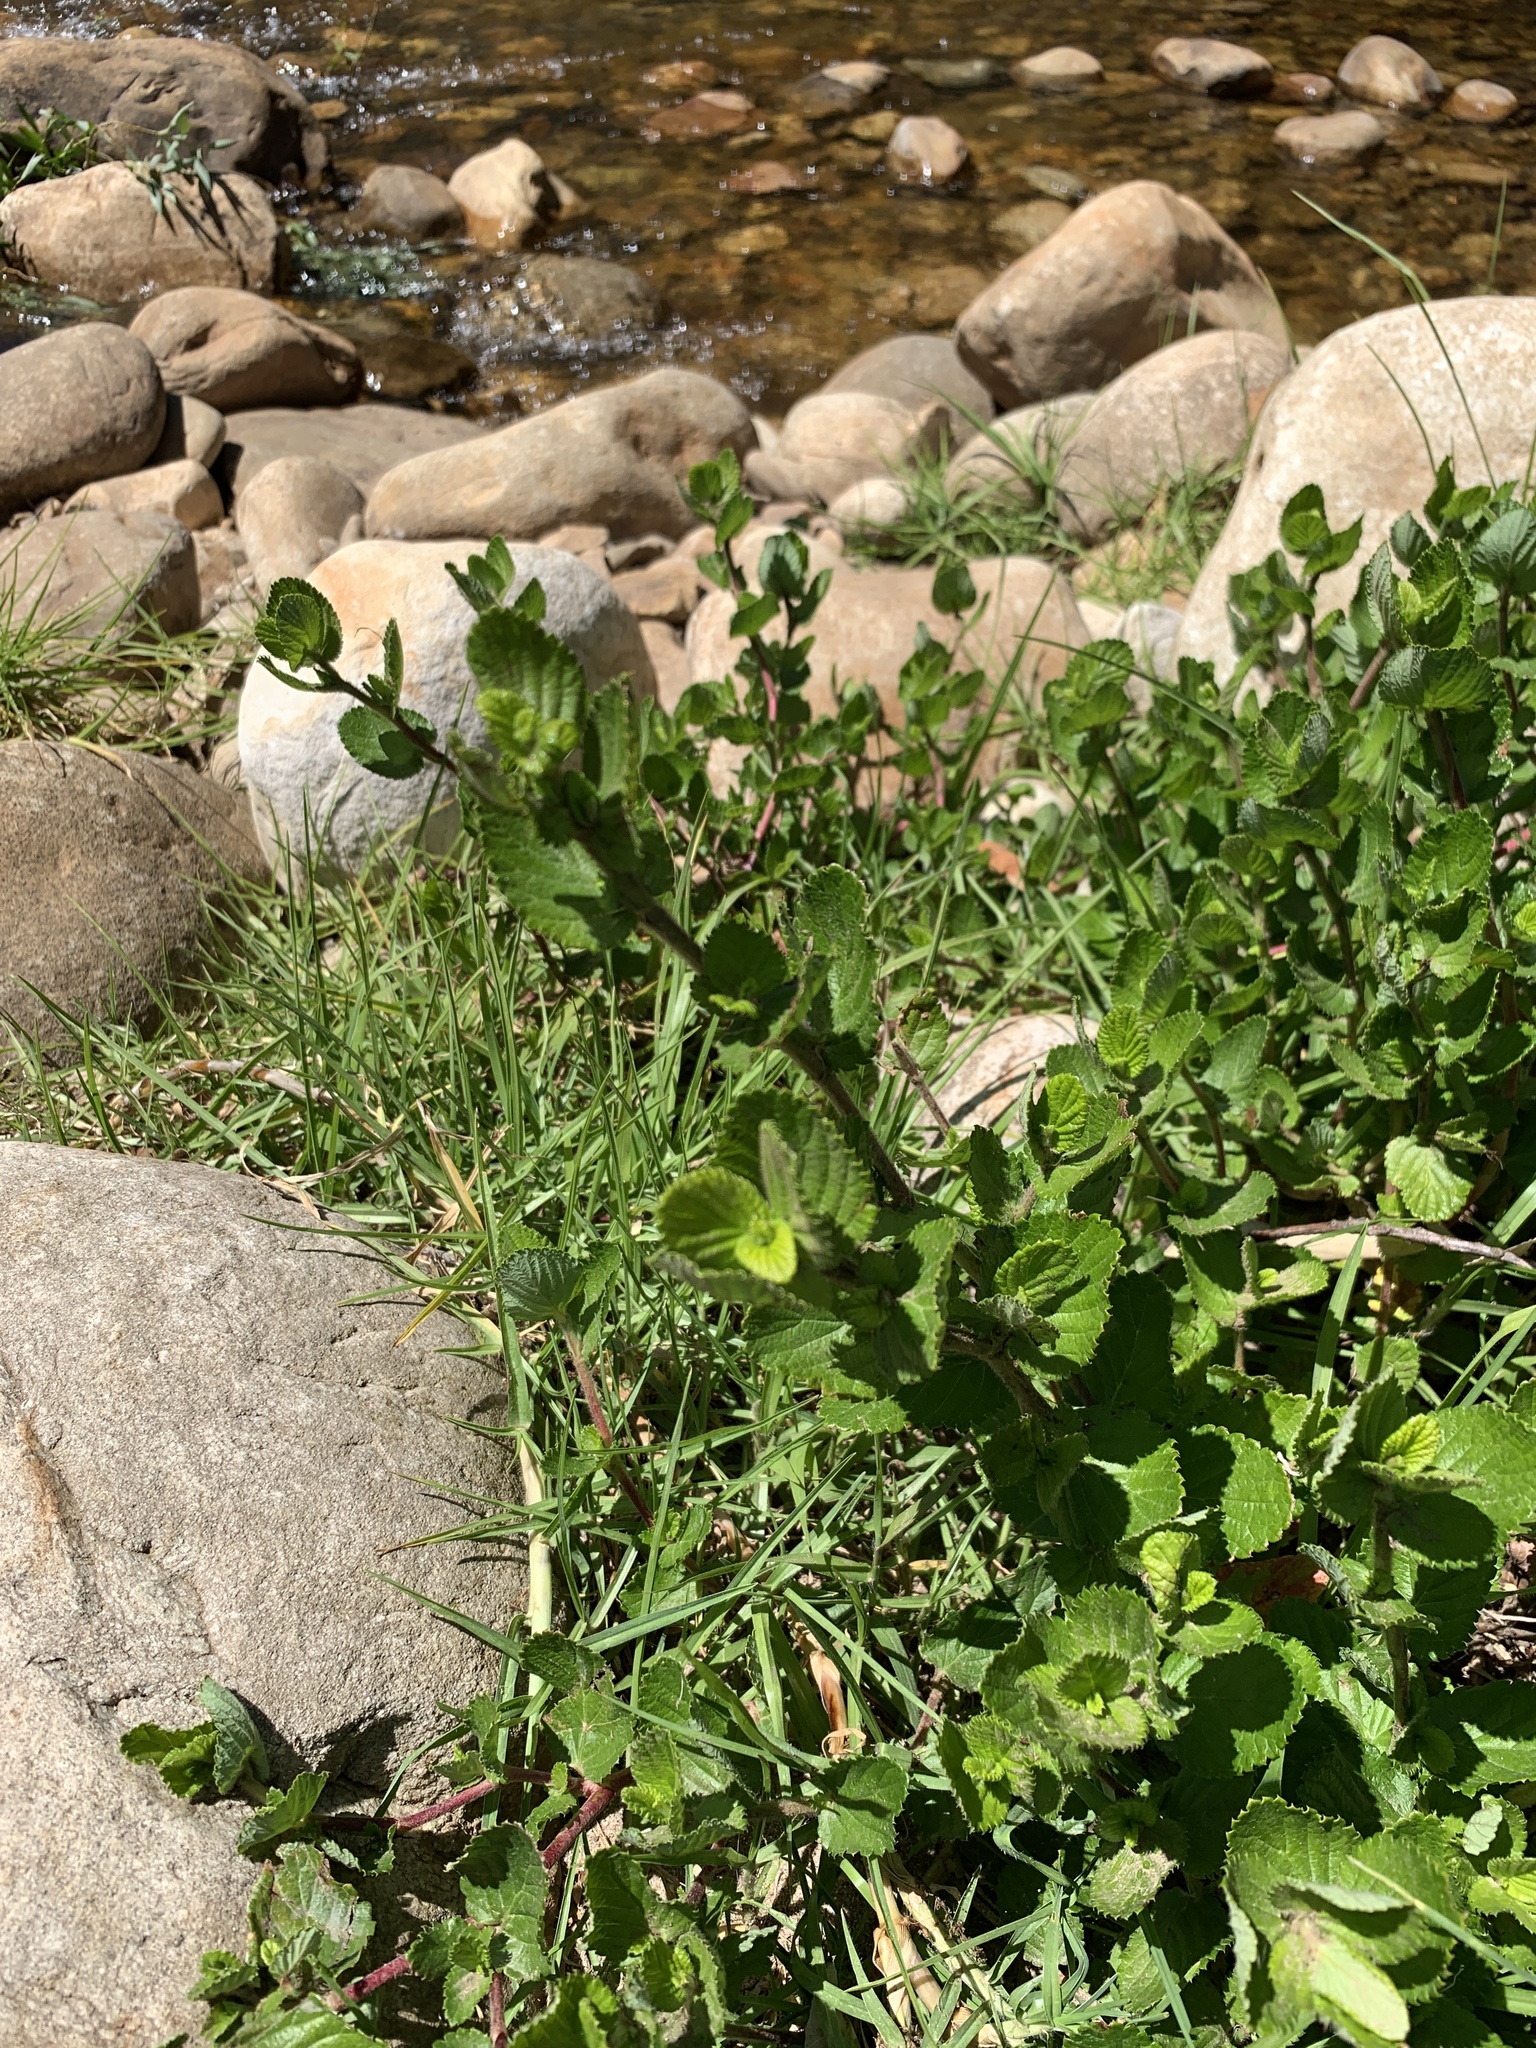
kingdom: Plantae
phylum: Tracheophyta
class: Magnoliopsida
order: Rosales
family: Rosaceae
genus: Cliffortia
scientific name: Cliffortia odorata
